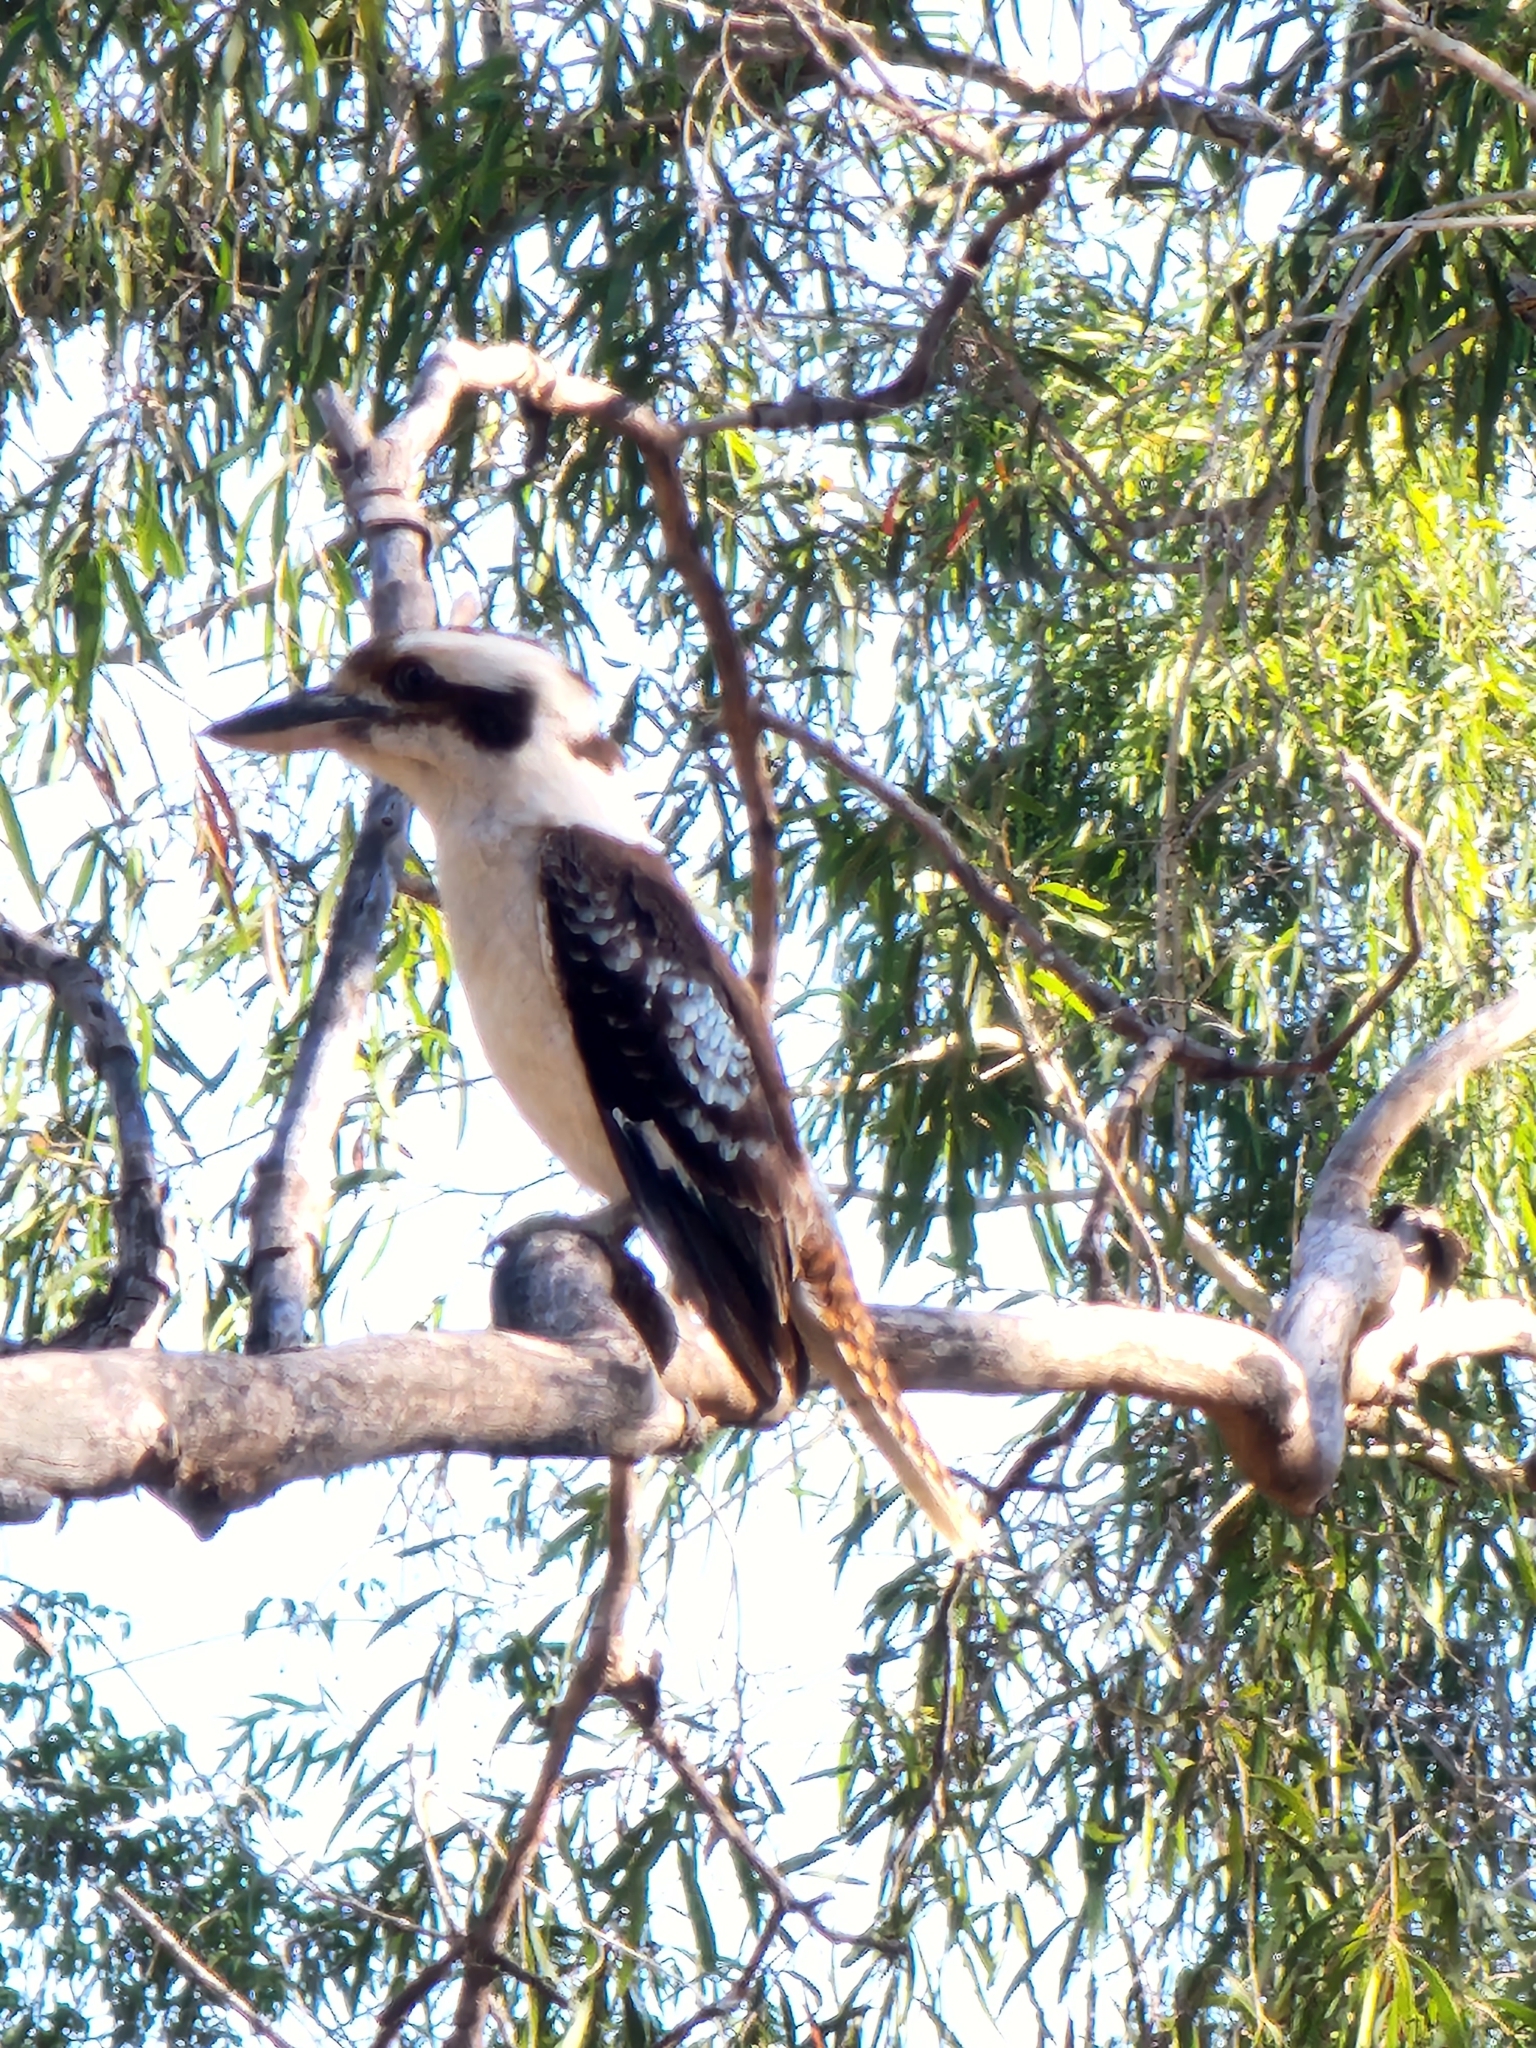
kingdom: Animalia
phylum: Chordata
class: Aves
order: Coraciiformes
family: Alcedinidae
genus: Dacelo
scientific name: Dacelo novaeguineae
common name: Laughing kookaburra
